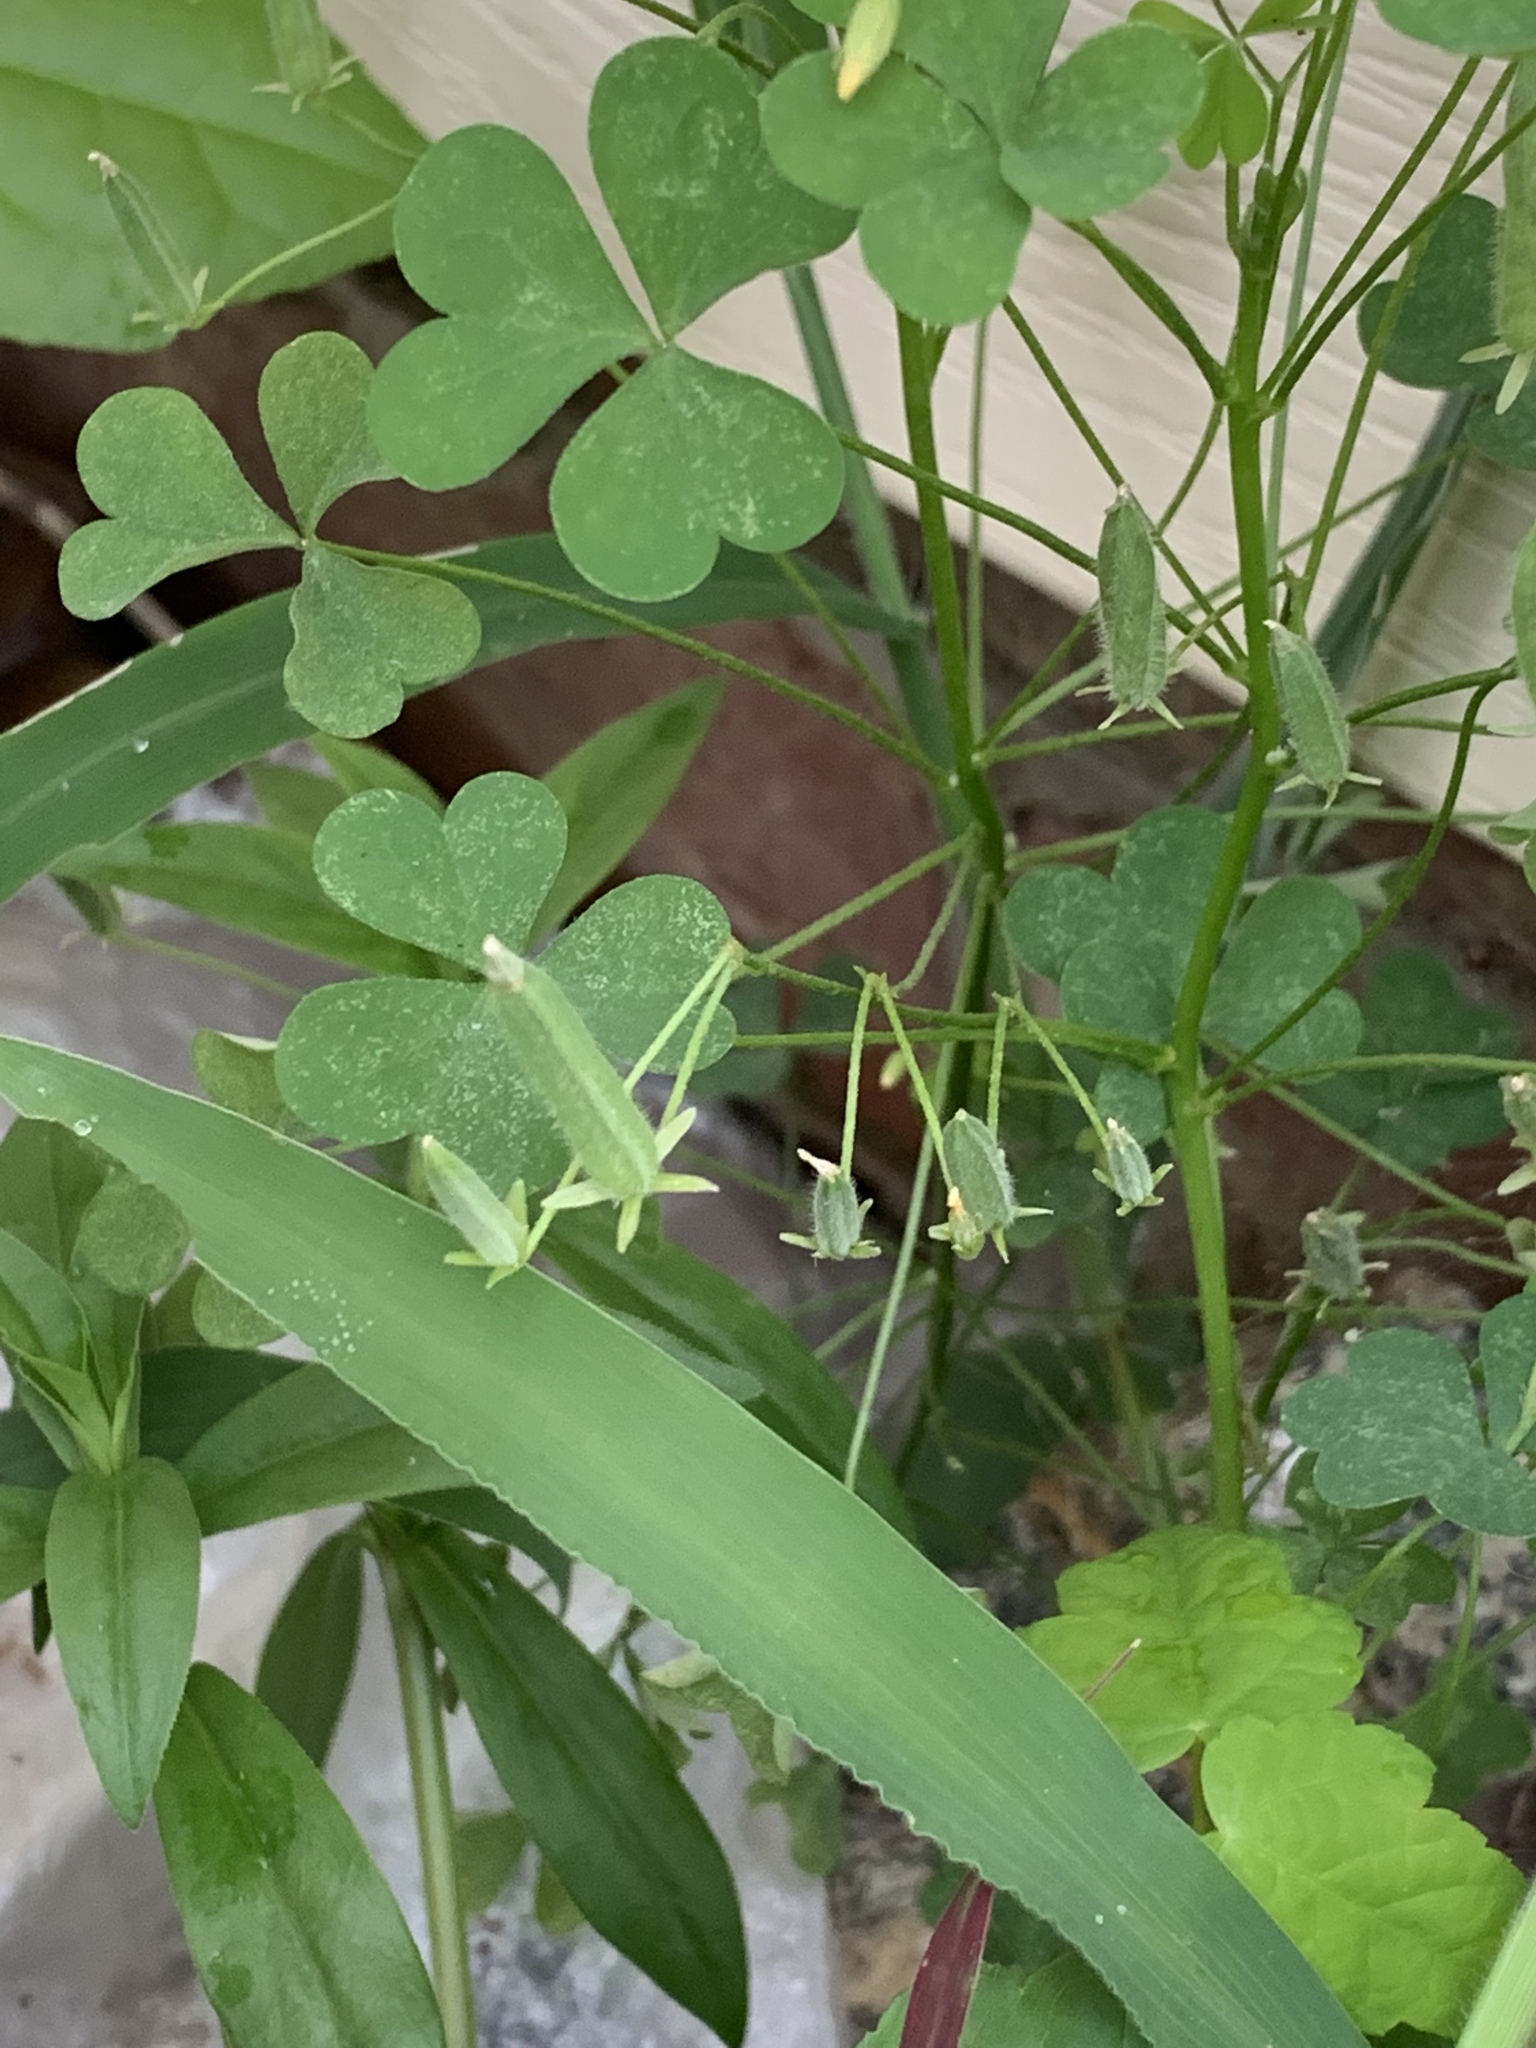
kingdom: Plantae
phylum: Tracheophyta
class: Magnoliopsida
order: Oxalidales
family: Oxalidaceae
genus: Oxalis
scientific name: Oxalis dillenii
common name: Sussex yellow-sorrel
